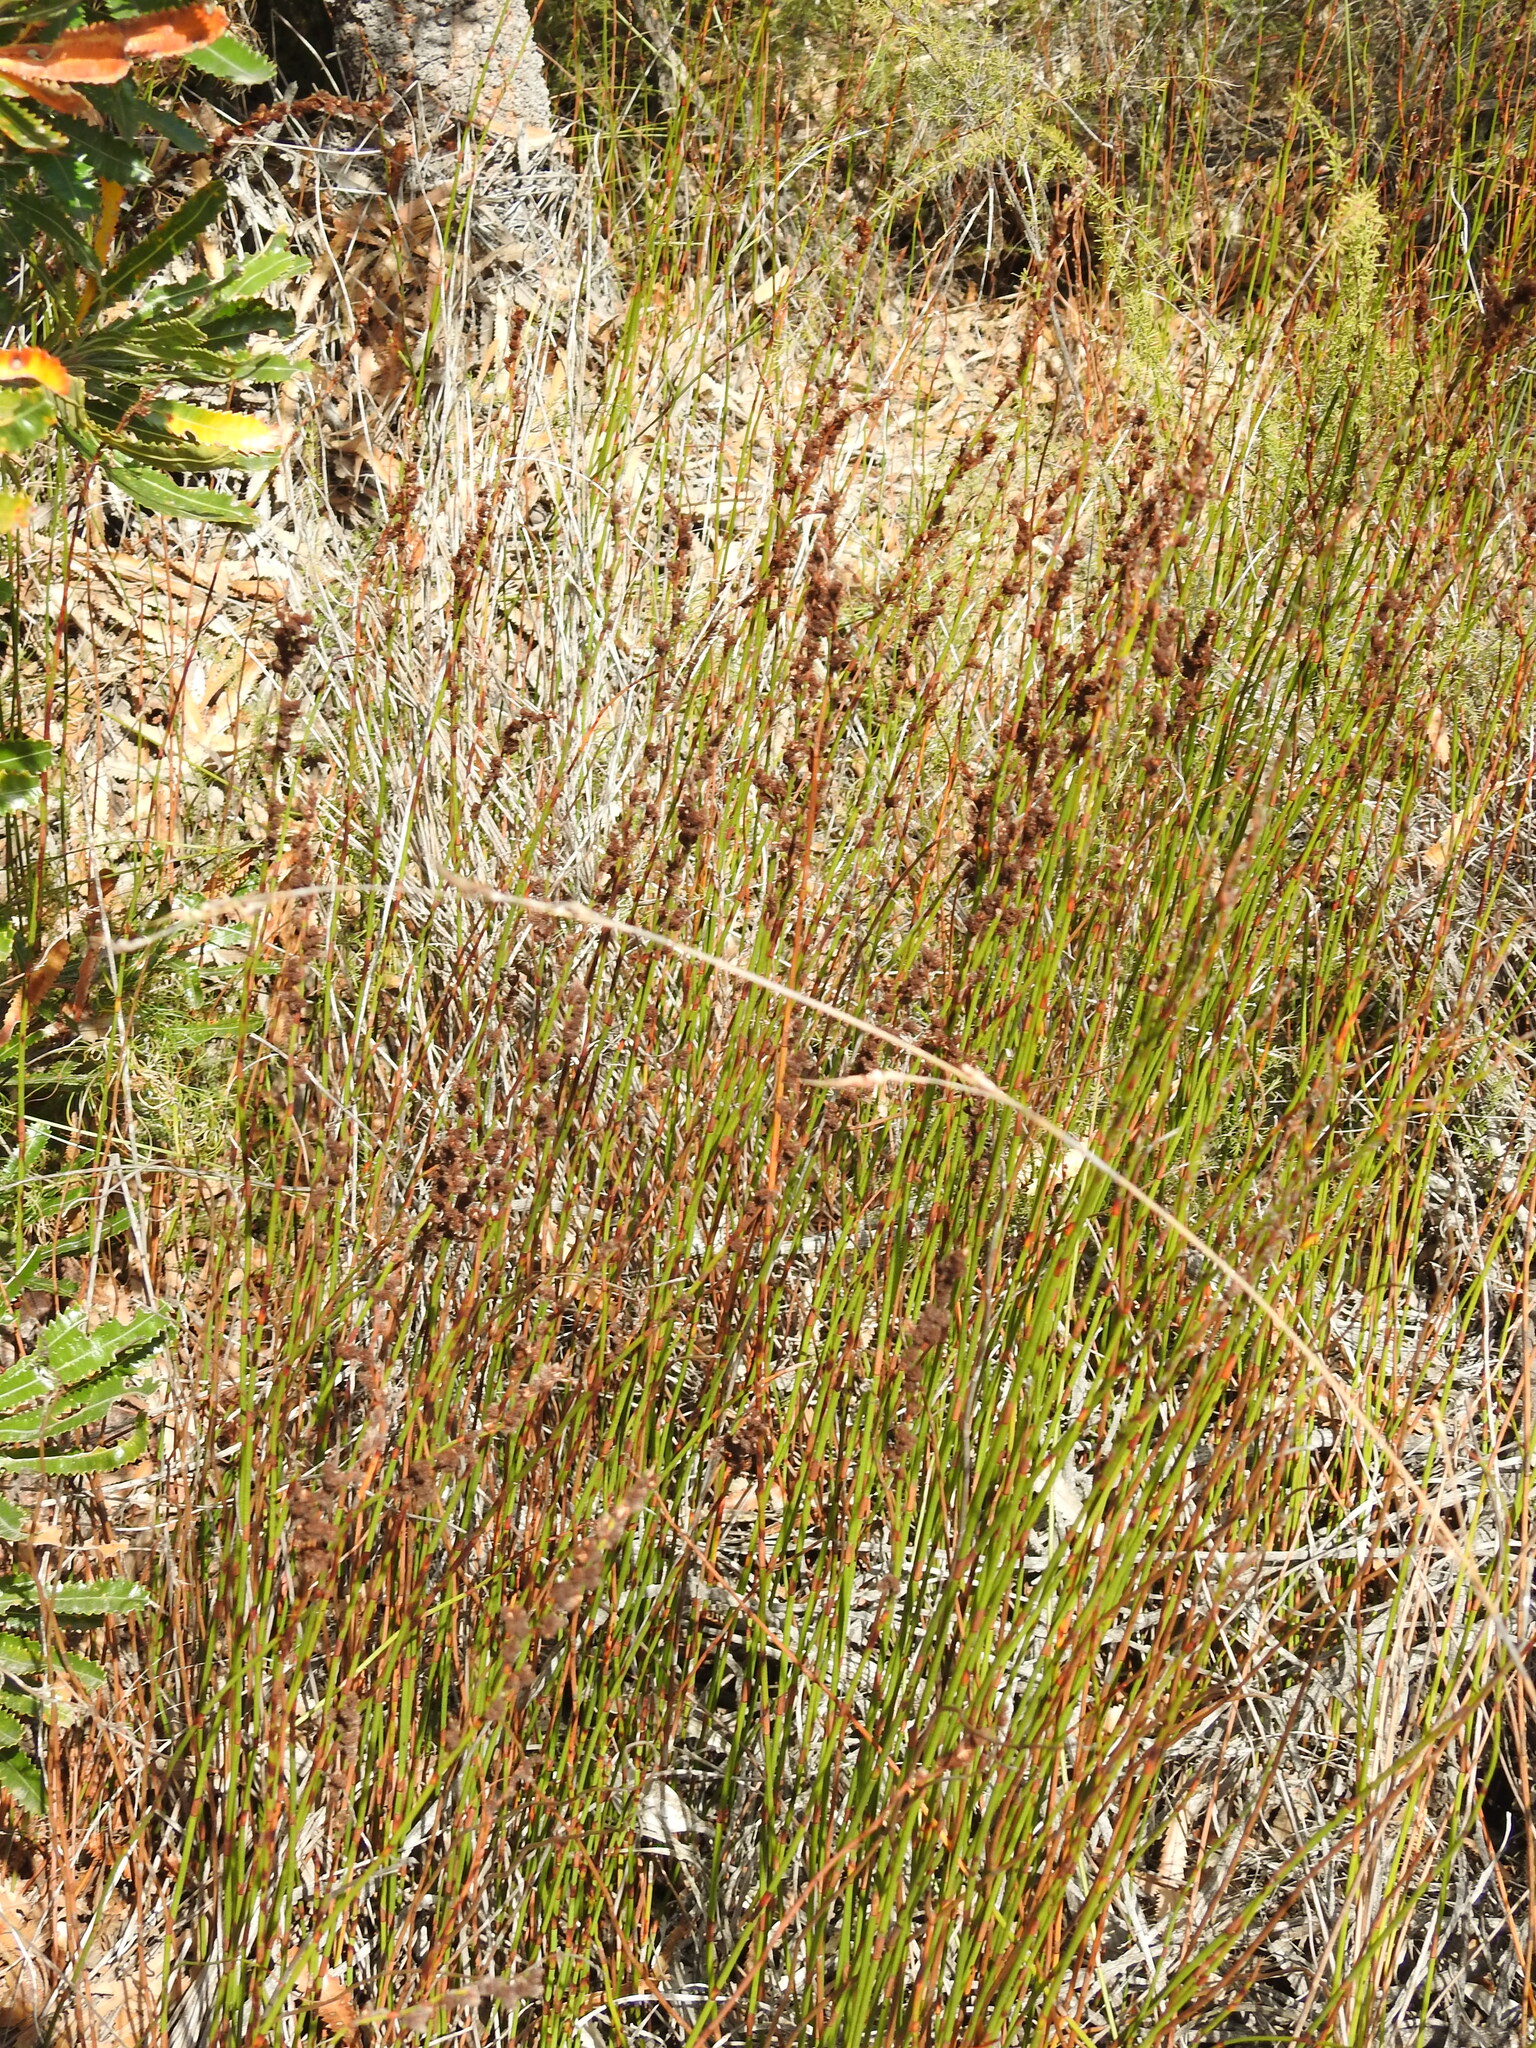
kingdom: Plantae
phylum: Tracheophyta
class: Liliopsida
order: Poales
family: Restionaceae
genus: Baloskion
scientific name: Baloskion pallens
